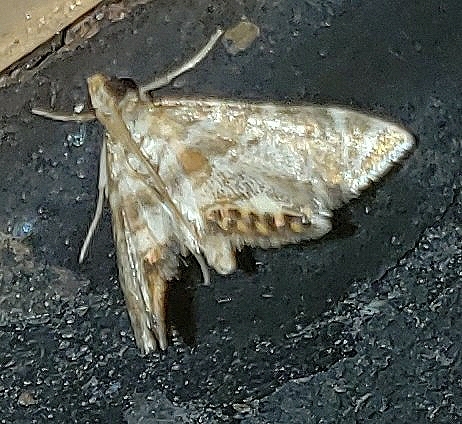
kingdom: Animalia
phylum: Arthropoda
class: Insecta
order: Lepidoptera
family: Crambidae
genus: Petrophila
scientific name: Petrophila fulicalis
